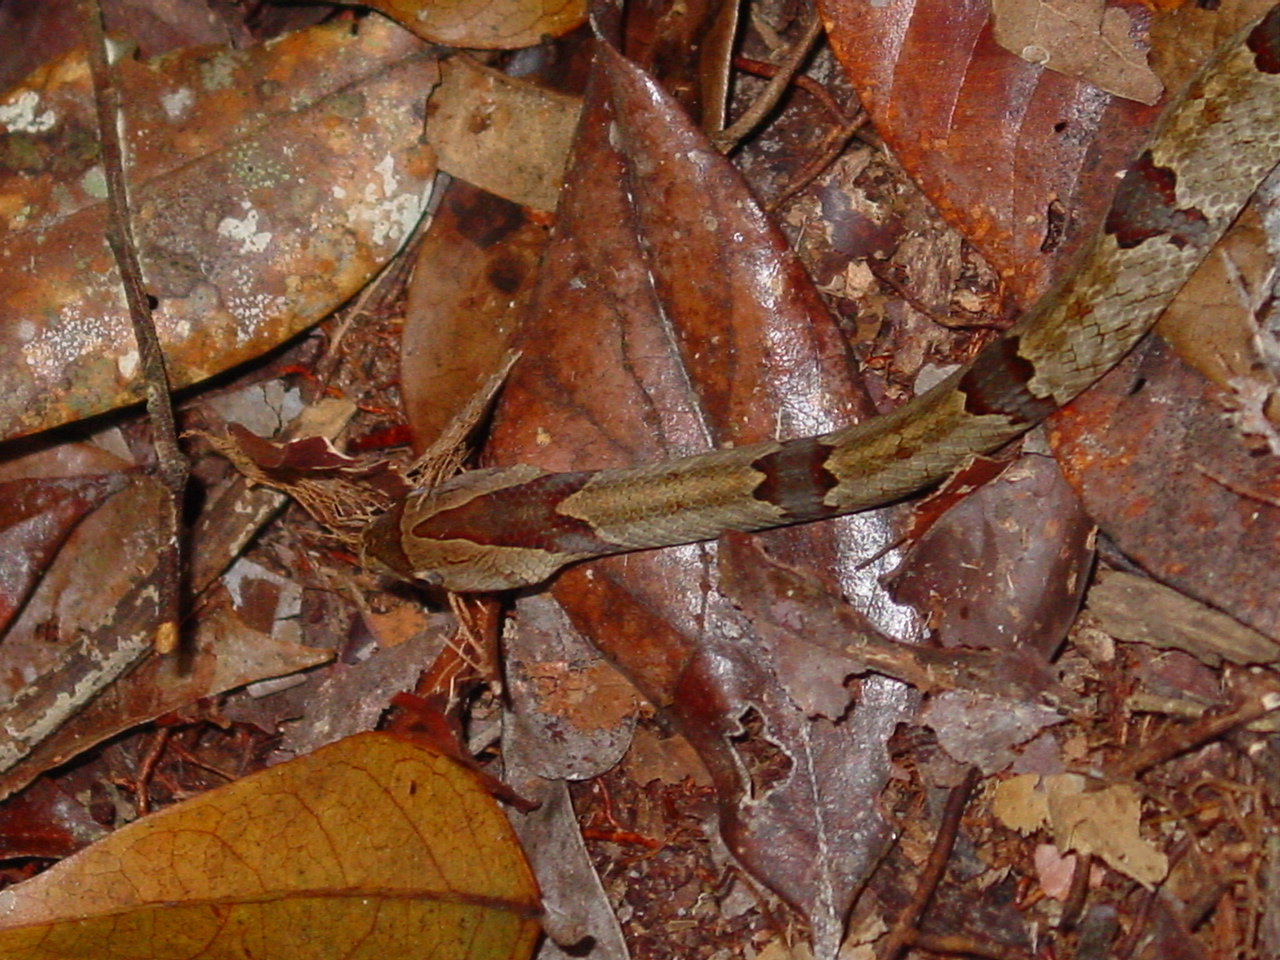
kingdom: Animalia
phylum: Chordata
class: Squamata
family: Colubridae
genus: Oligodon
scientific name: Oligodon purpurascens
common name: Brown kukri snake
